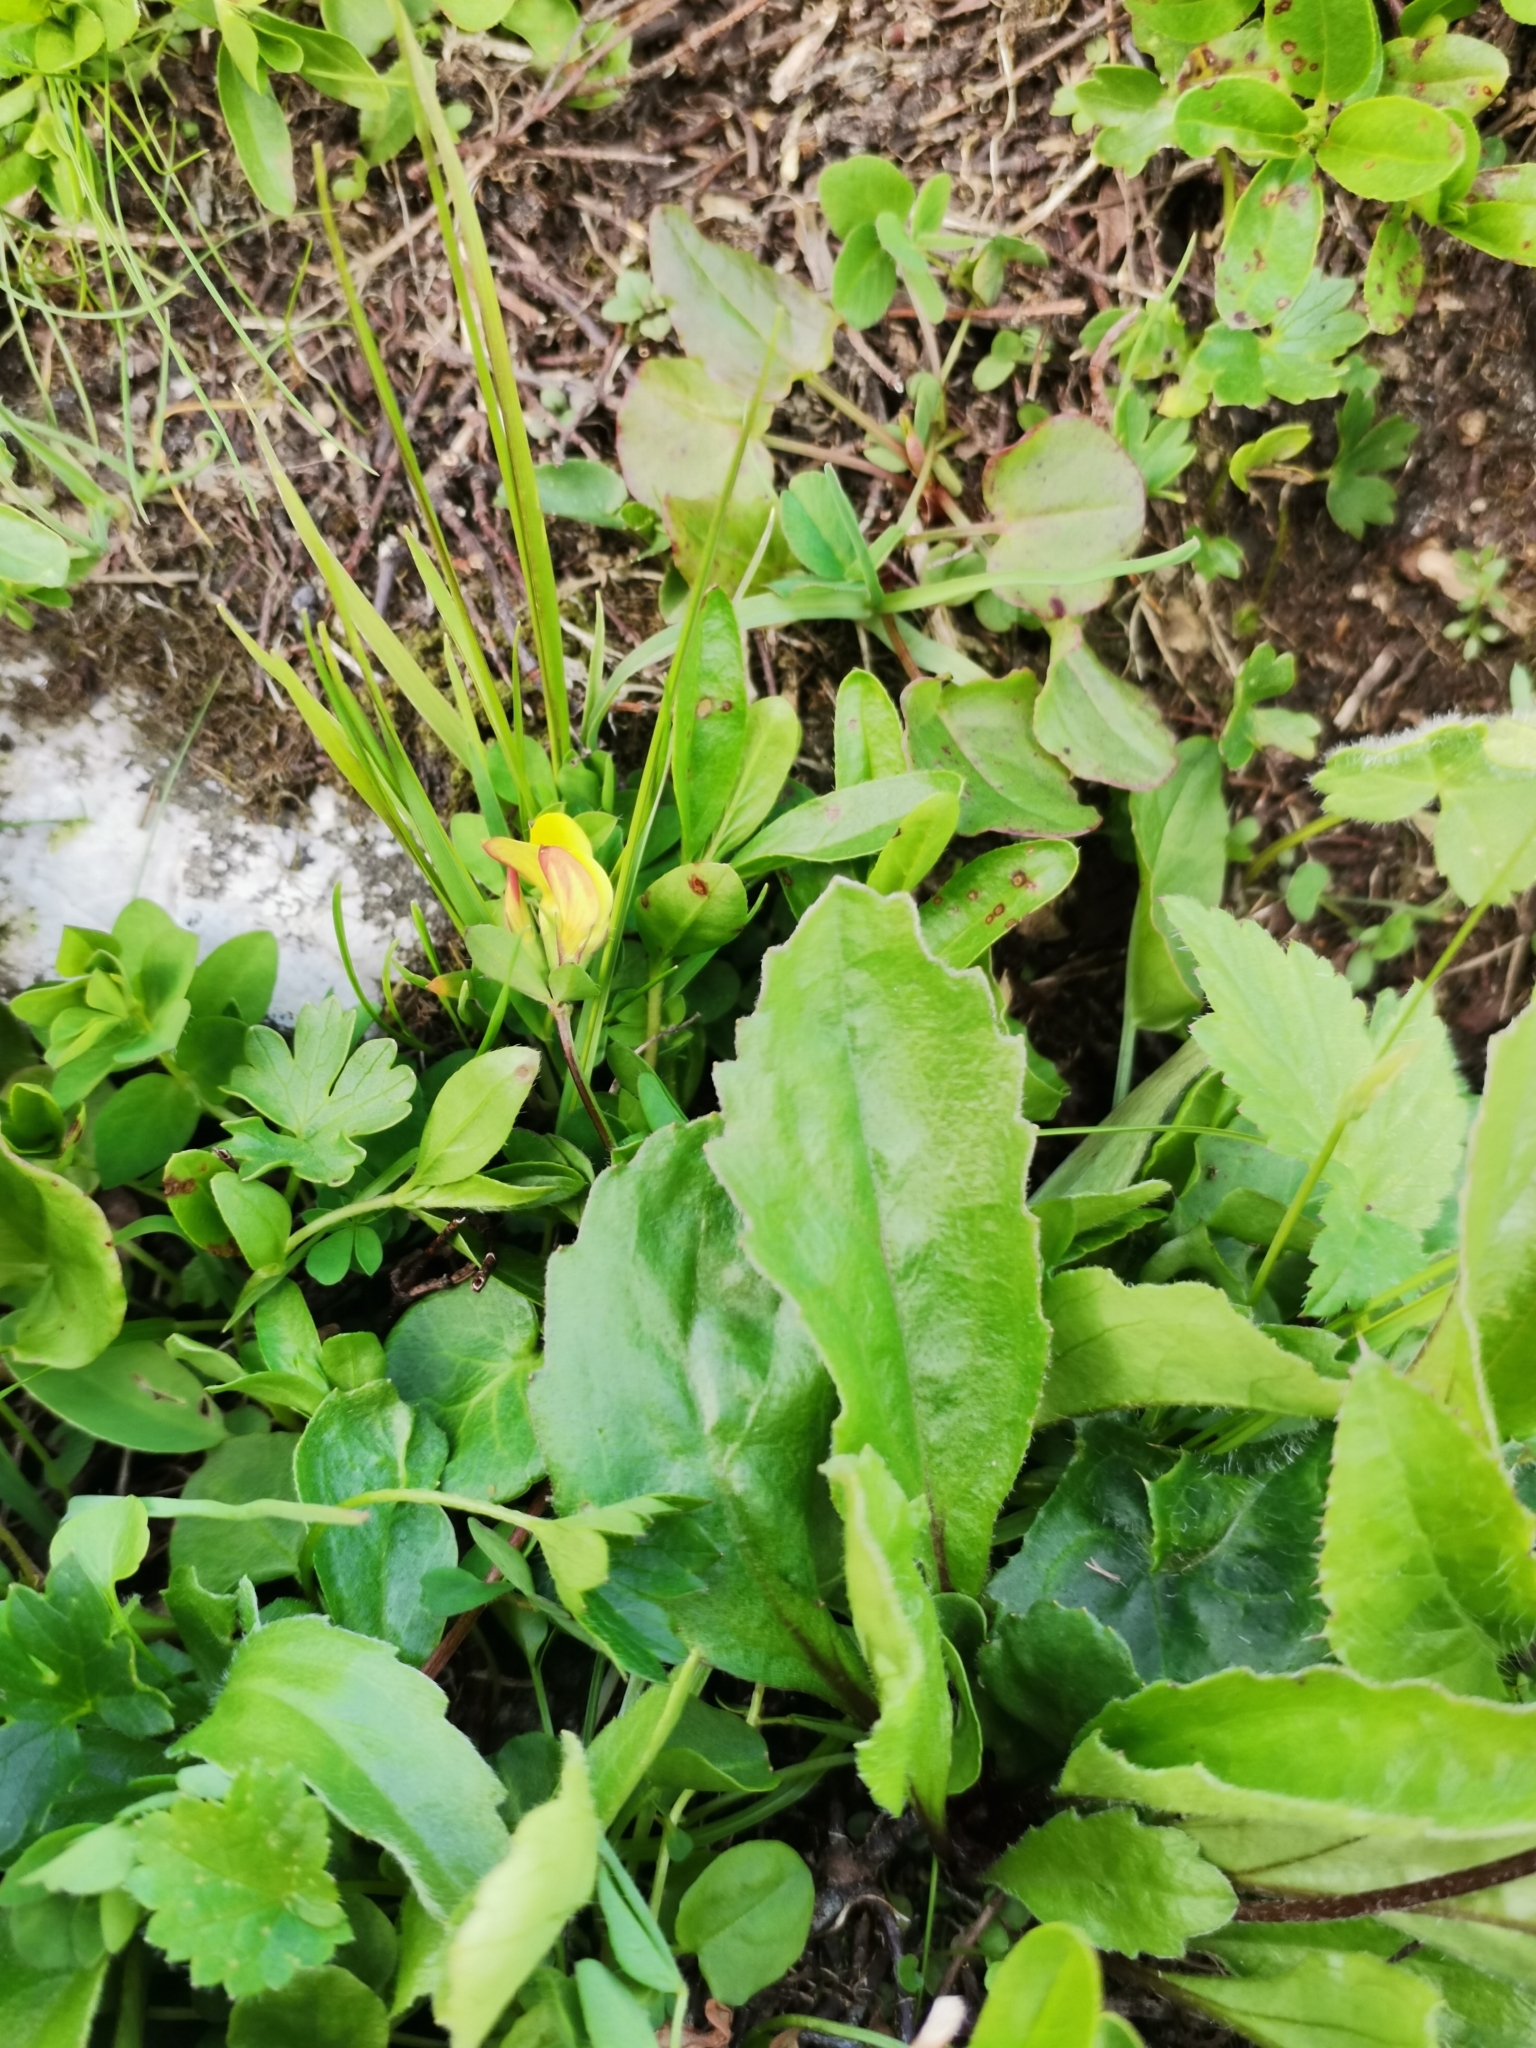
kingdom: Plantae
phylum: Tracheophyta
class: Magnoliopsida
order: Asterales
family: Asteraceae
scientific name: Asteraceae
